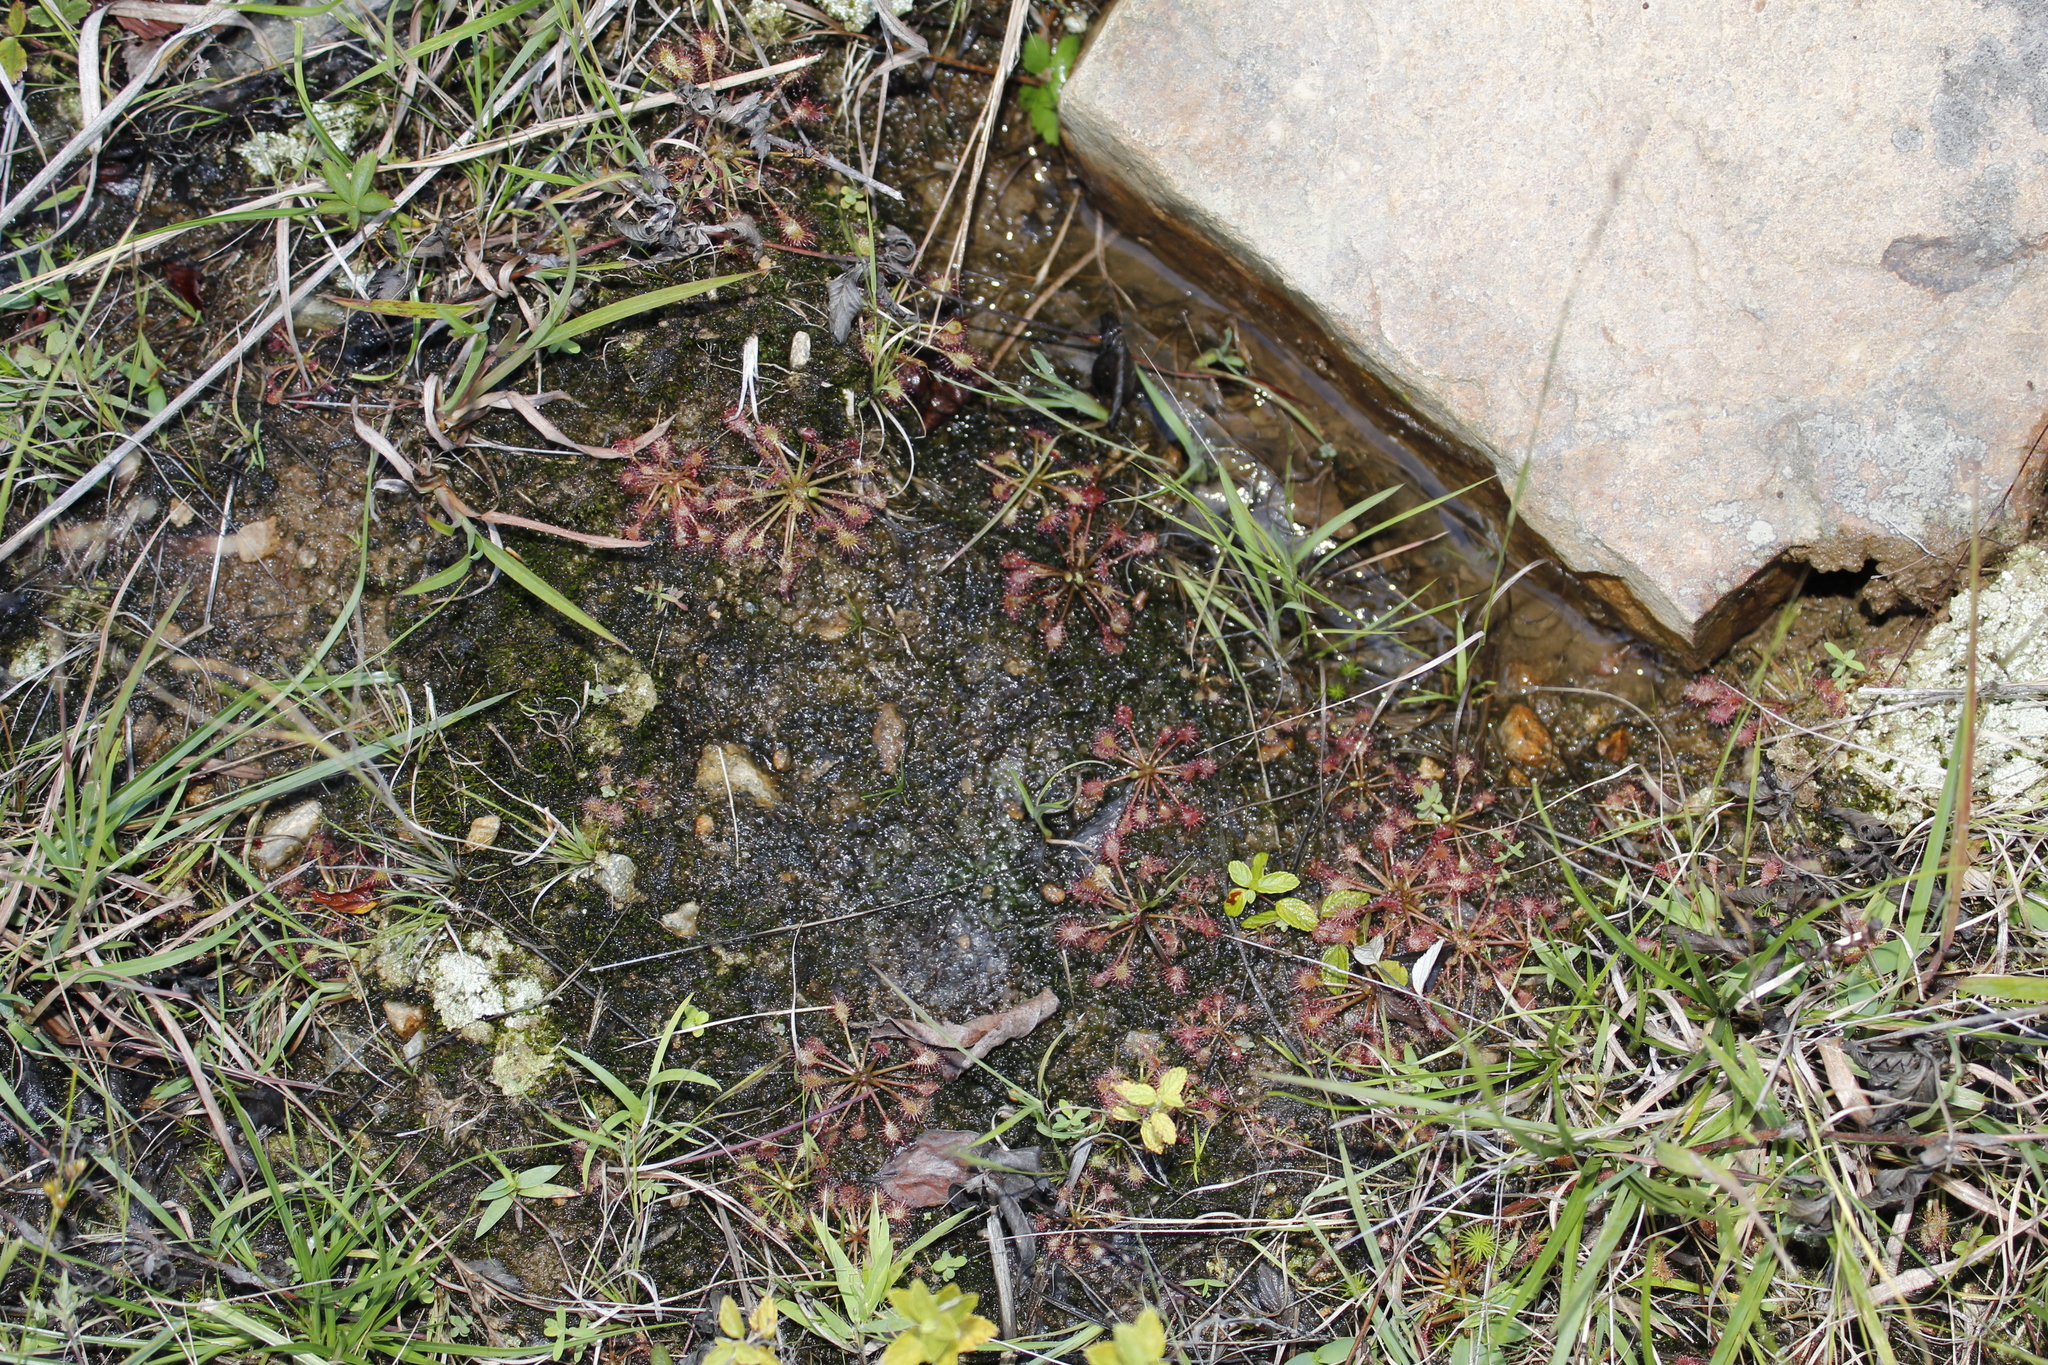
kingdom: Plantae
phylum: Tracheophyta
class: Magnoliopsida
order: Caryophyllales
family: Droseraceae
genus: Drosera
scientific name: Drosera intermedia
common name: Oblong-leaved sundew
